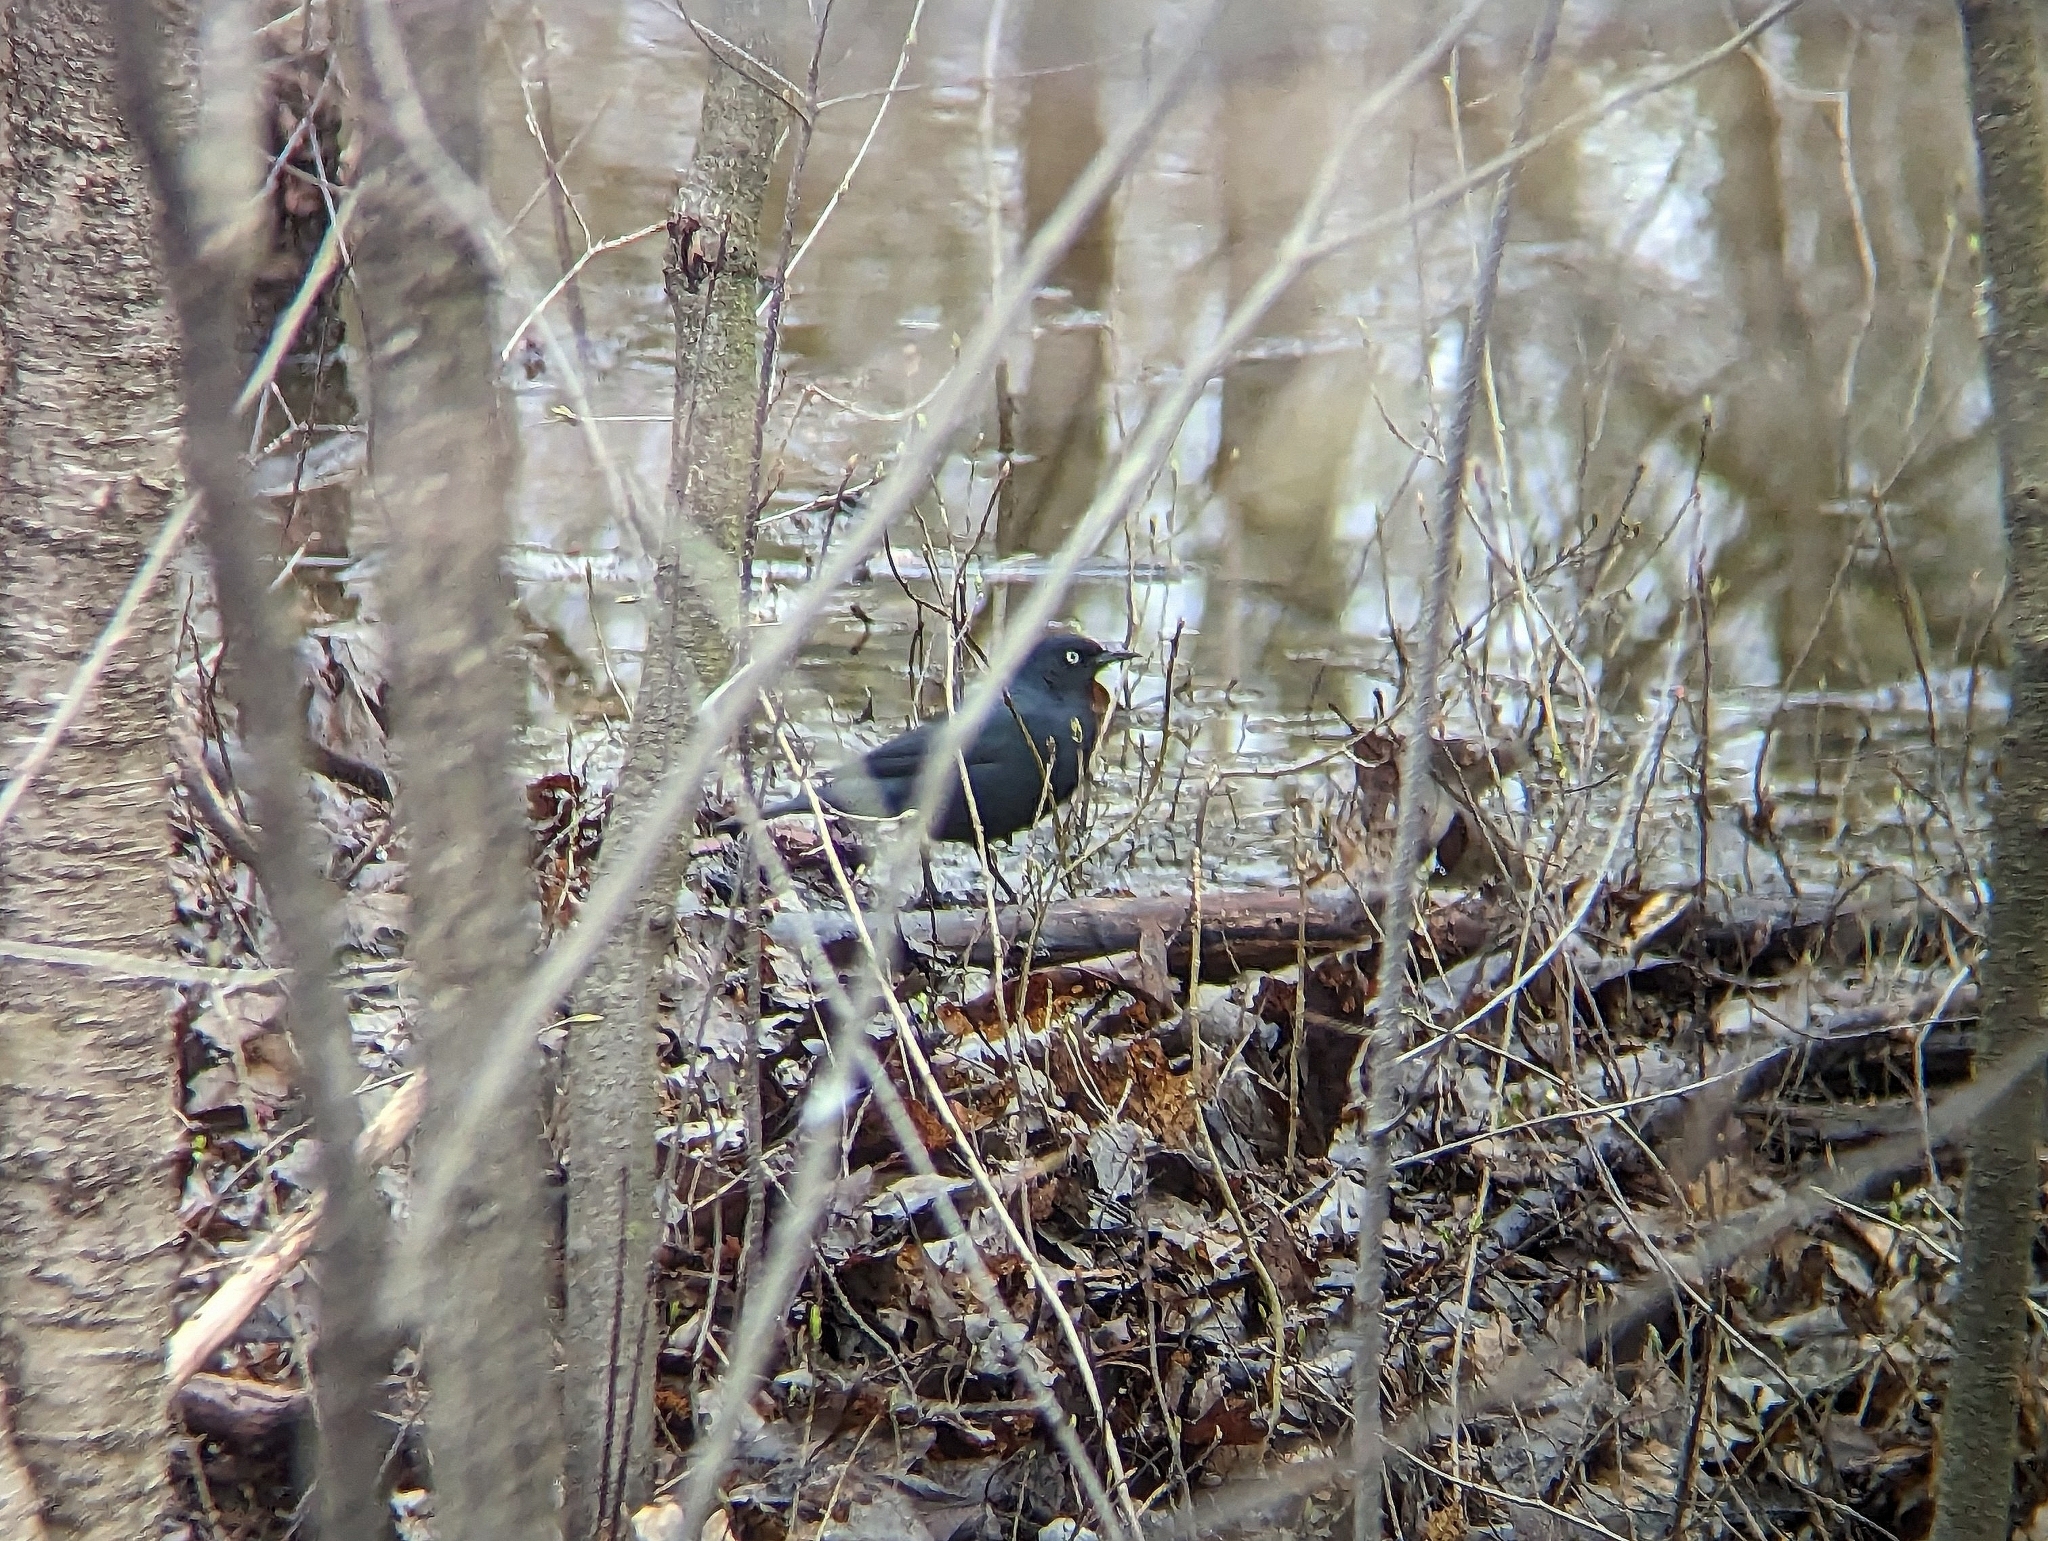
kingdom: Animalia
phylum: Chordata
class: Aves
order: Passeriformes
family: Icteridae
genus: Euphagus
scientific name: Euphagus carolinus
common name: Rusty blackbird
